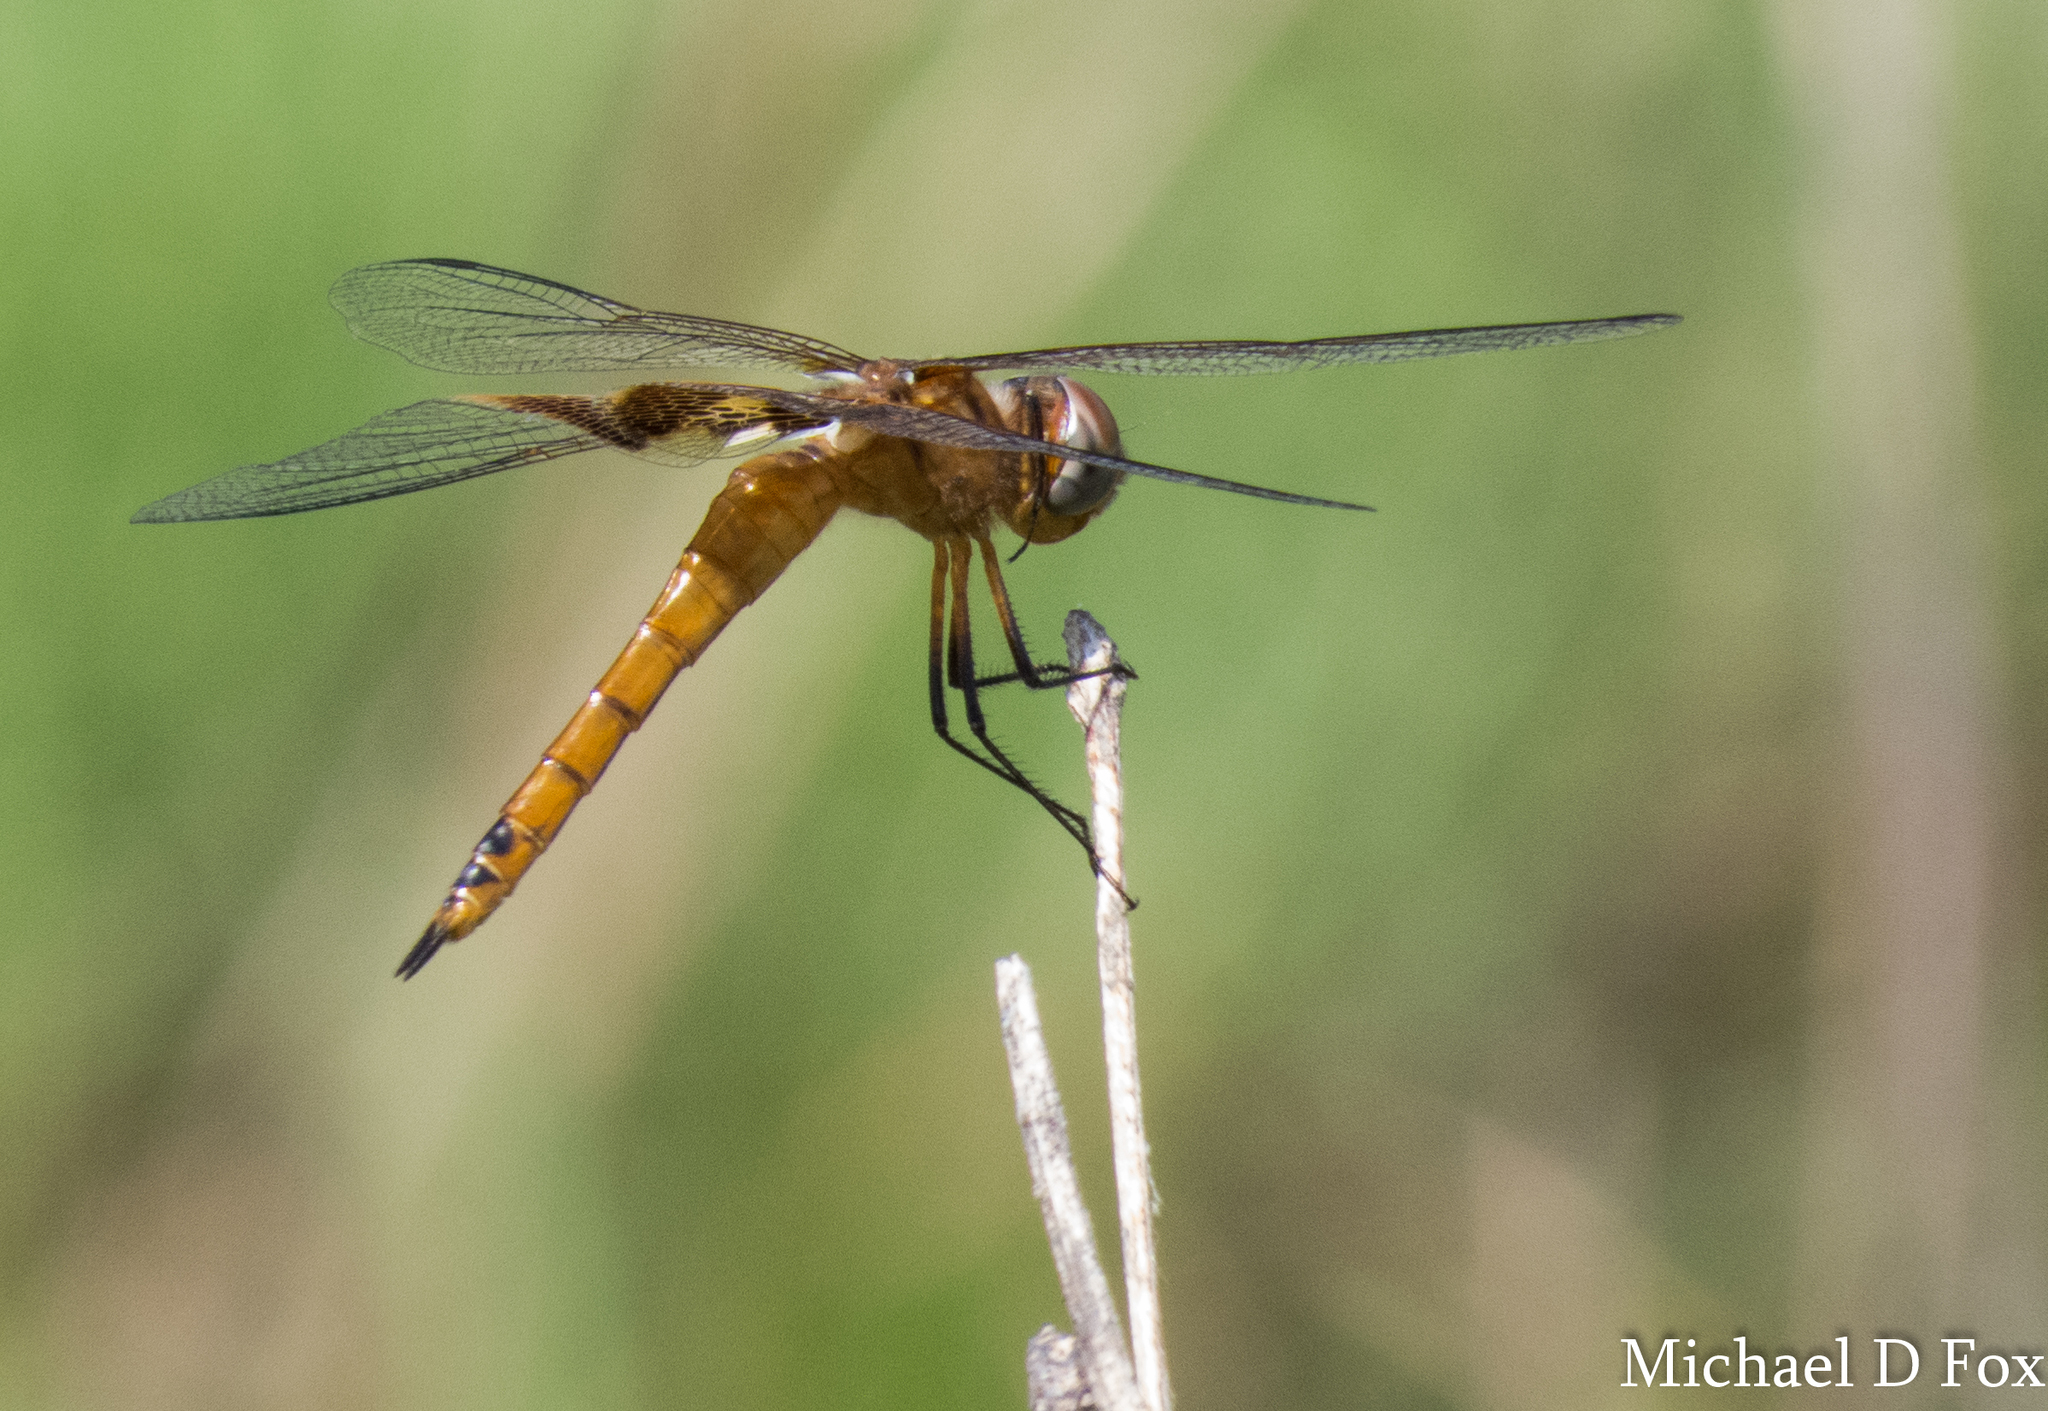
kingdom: Animalia
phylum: Arthropoda
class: Insecta
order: Odonata
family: Libellulidae
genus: Tramea
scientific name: Tramea onusta
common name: Red saddlebags
